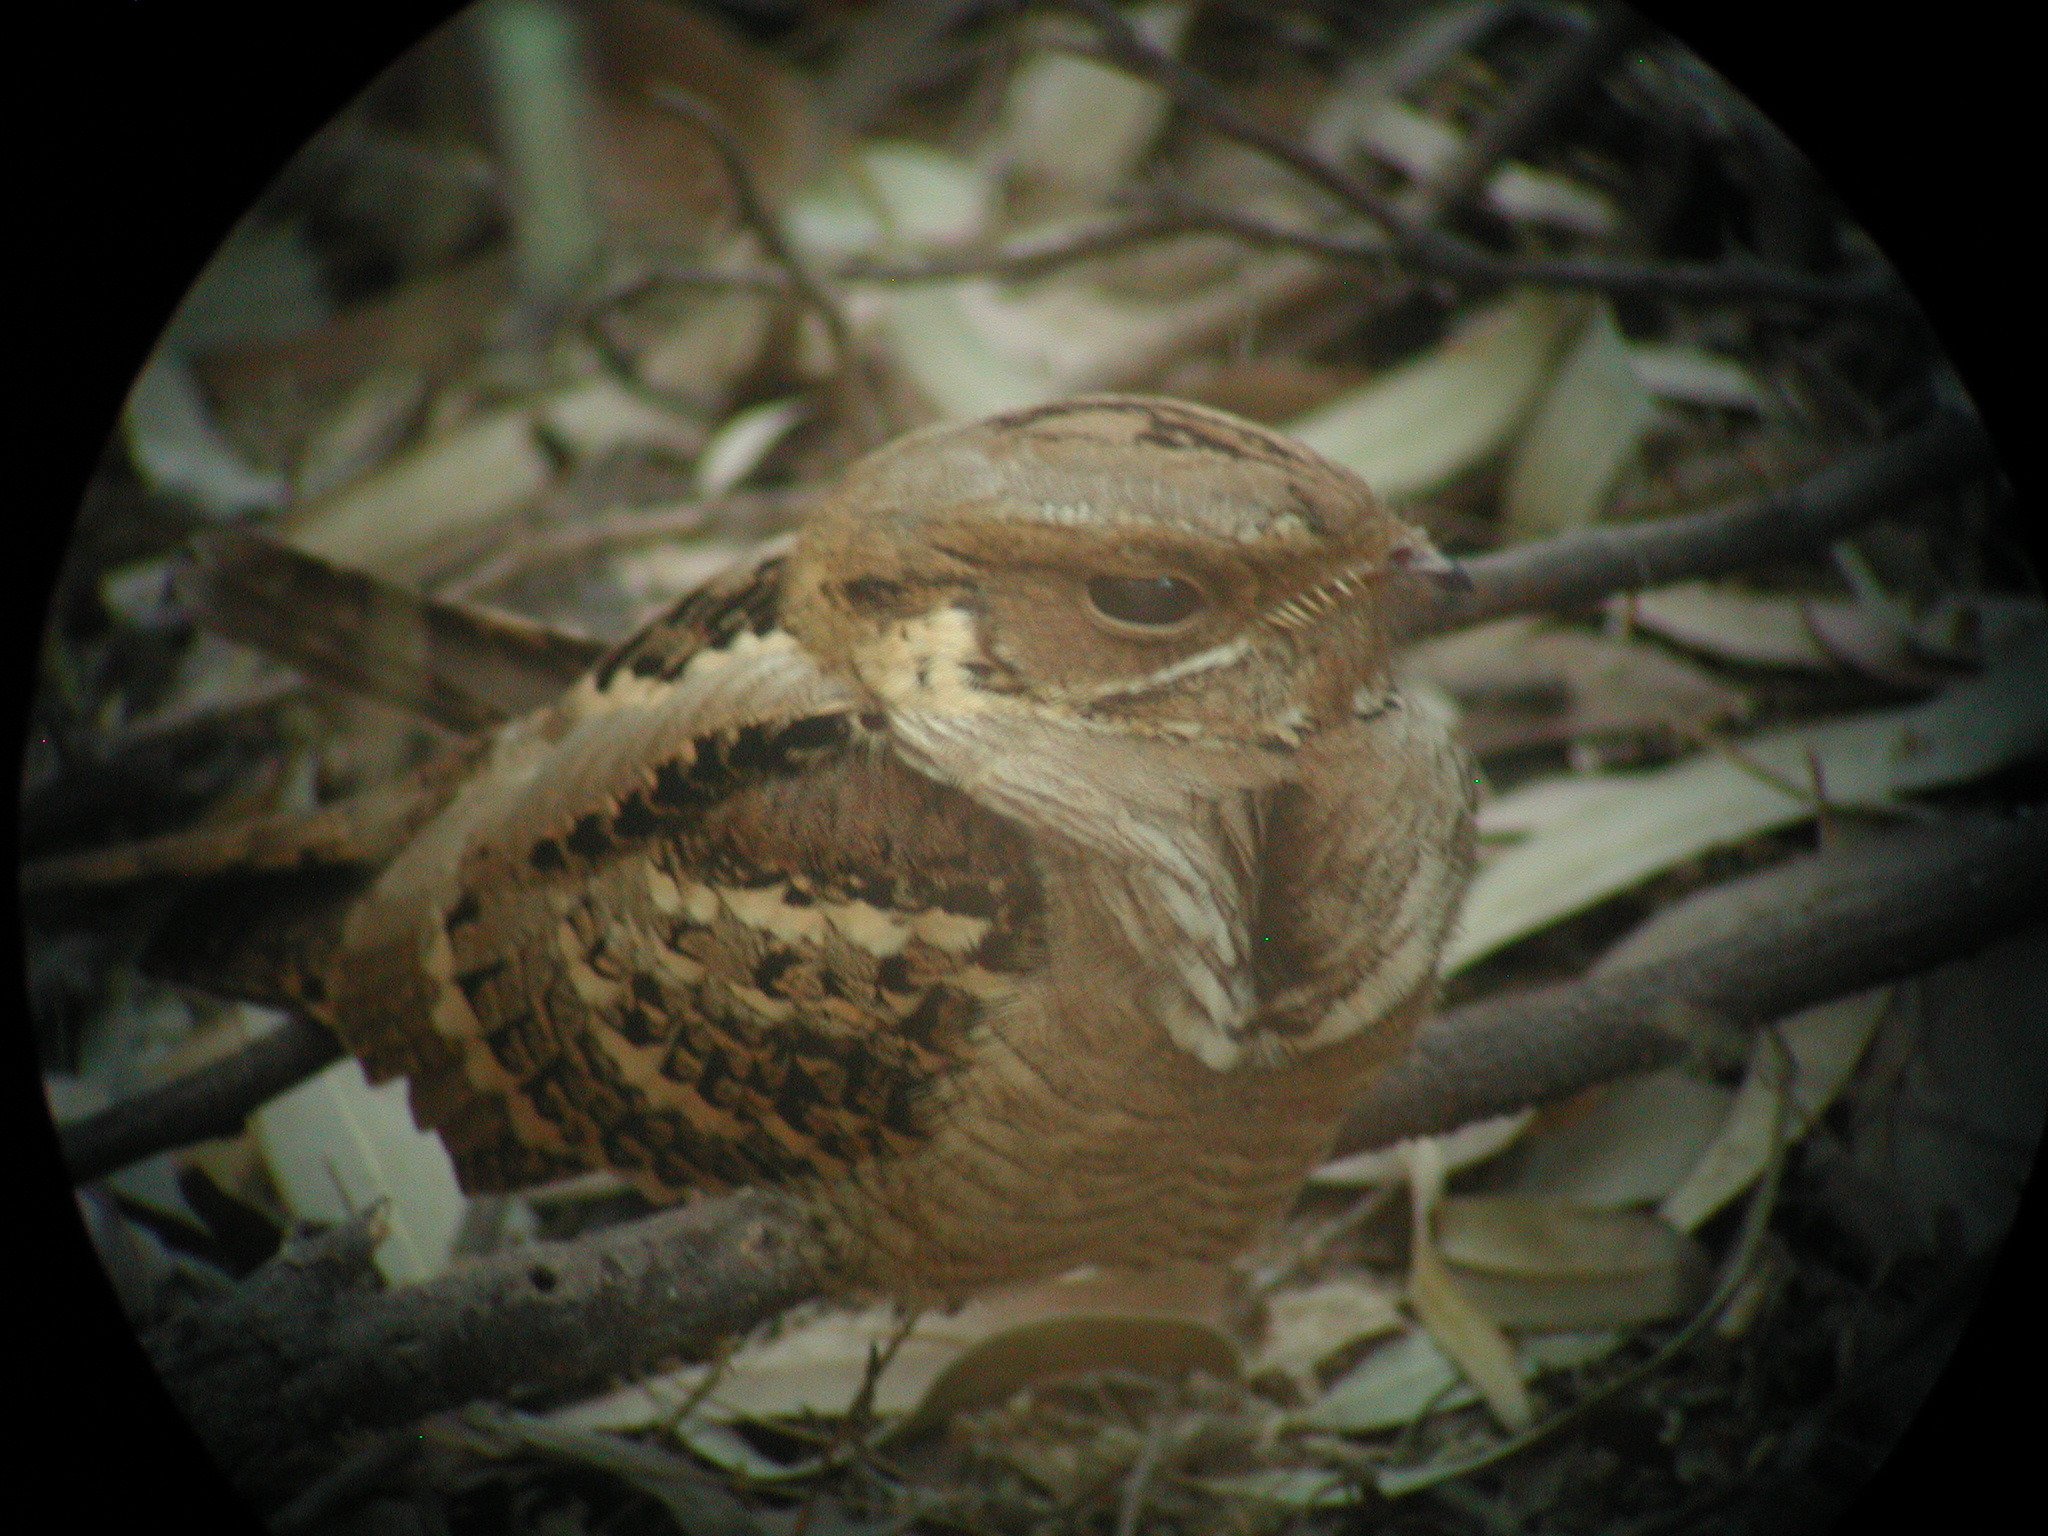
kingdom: Animalia
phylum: Chordata
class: Aves
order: Caprimulgiformes
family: Caprimulgidae
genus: Caprimulgus
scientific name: Caprimulgus macrurus
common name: Large-tailed nightjar
